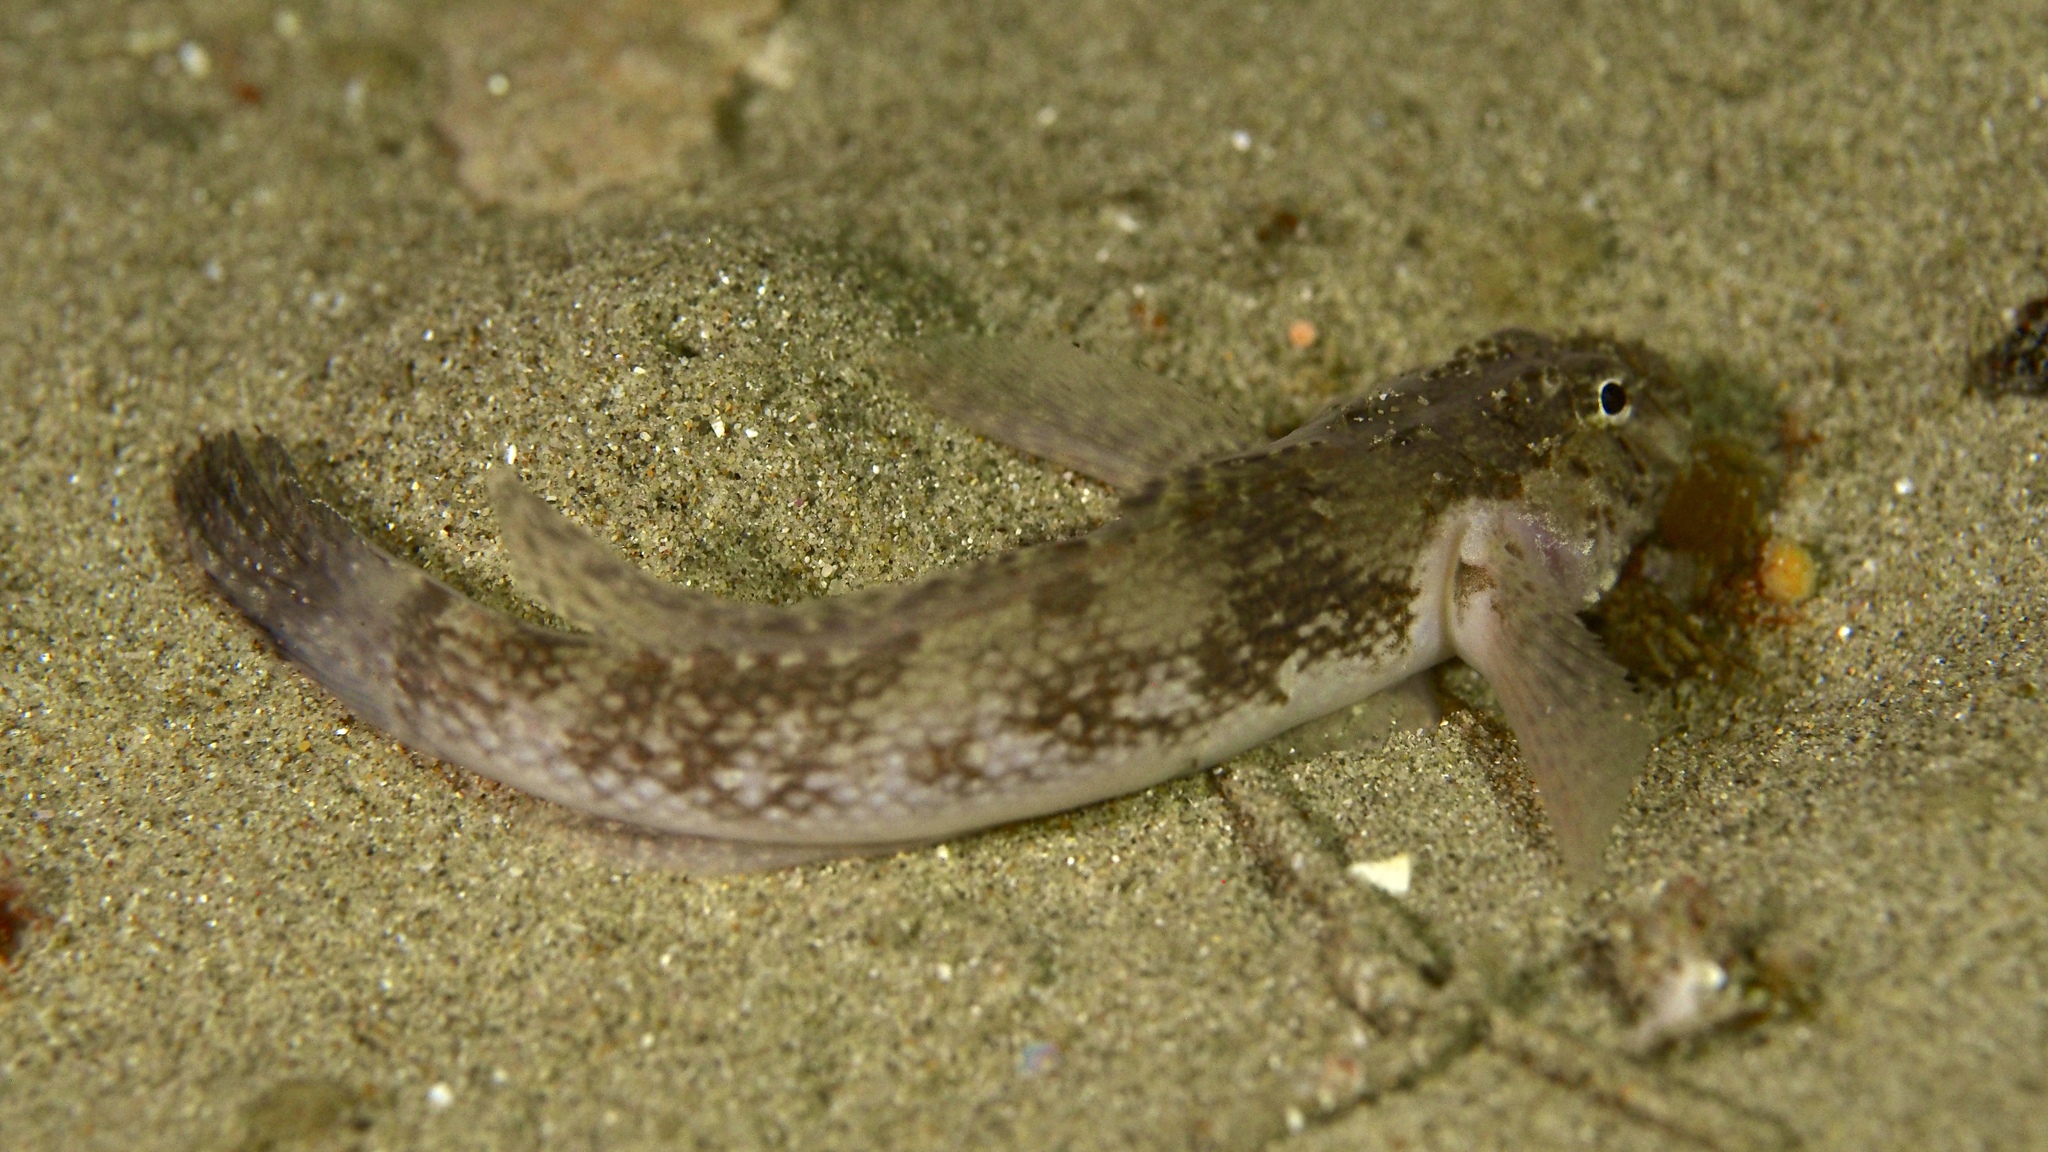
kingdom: Animalia
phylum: Chordata
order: Perciformes
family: Gobiidae
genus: Callogobius
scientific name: Callogobius mucosus
